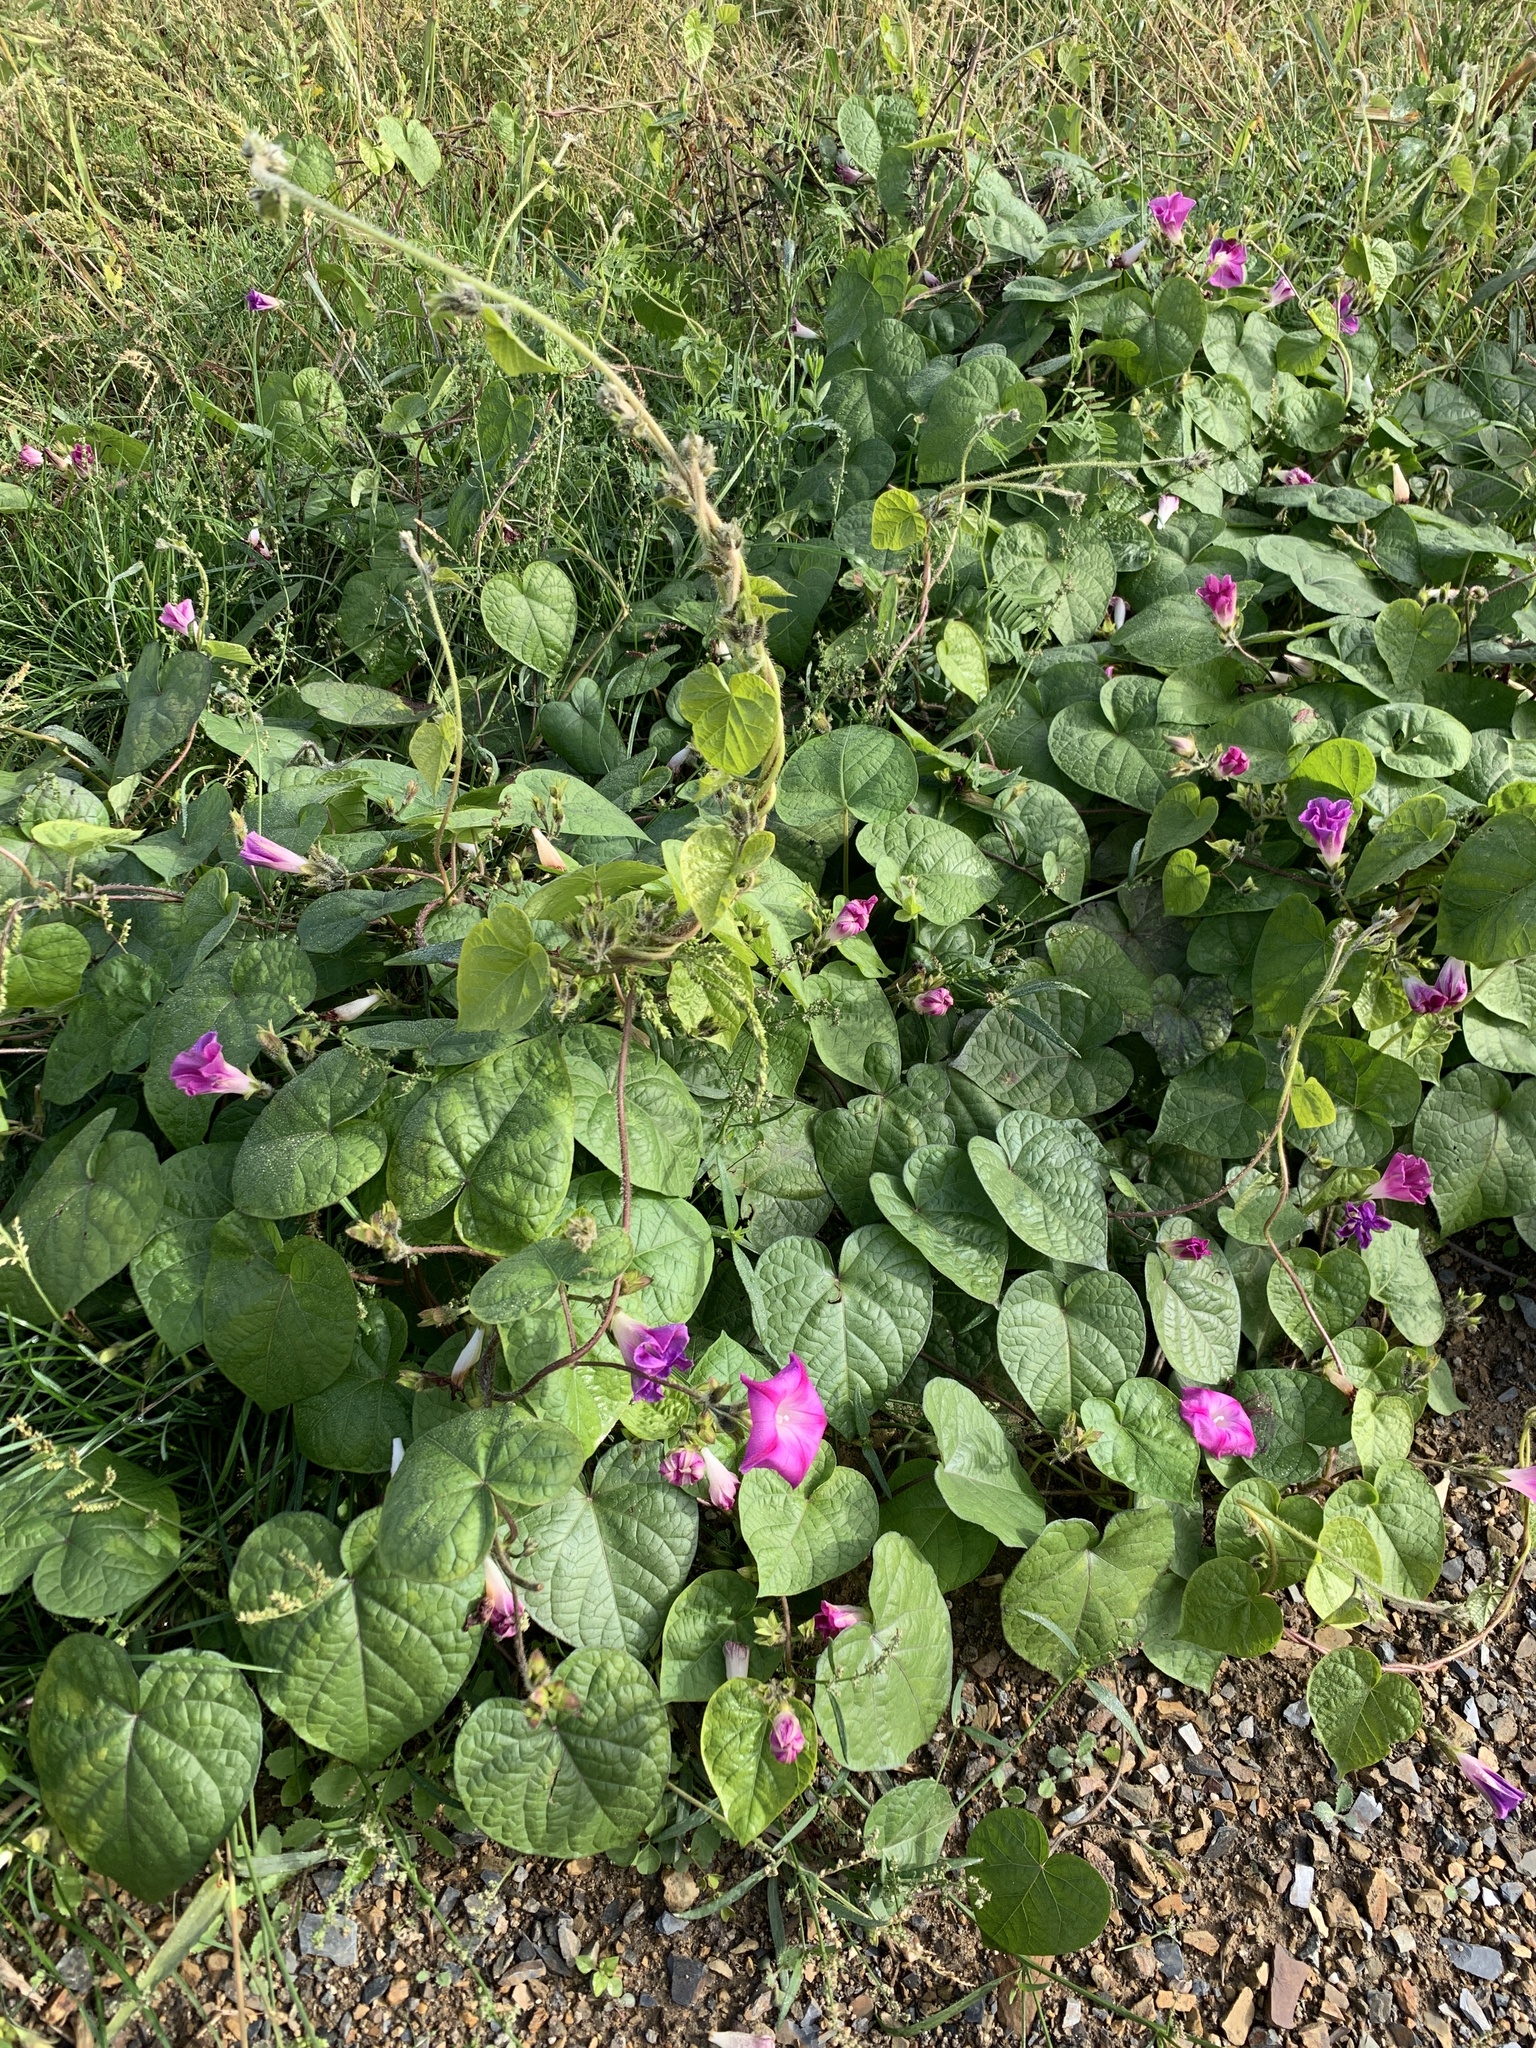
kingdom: Plantae
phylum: Tracheophyta
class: Magnoliopsida
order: Solanales
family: Convolvulaceae
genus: Ipomoea
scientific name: Ipomoea purpurea
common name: Common morning-glory
